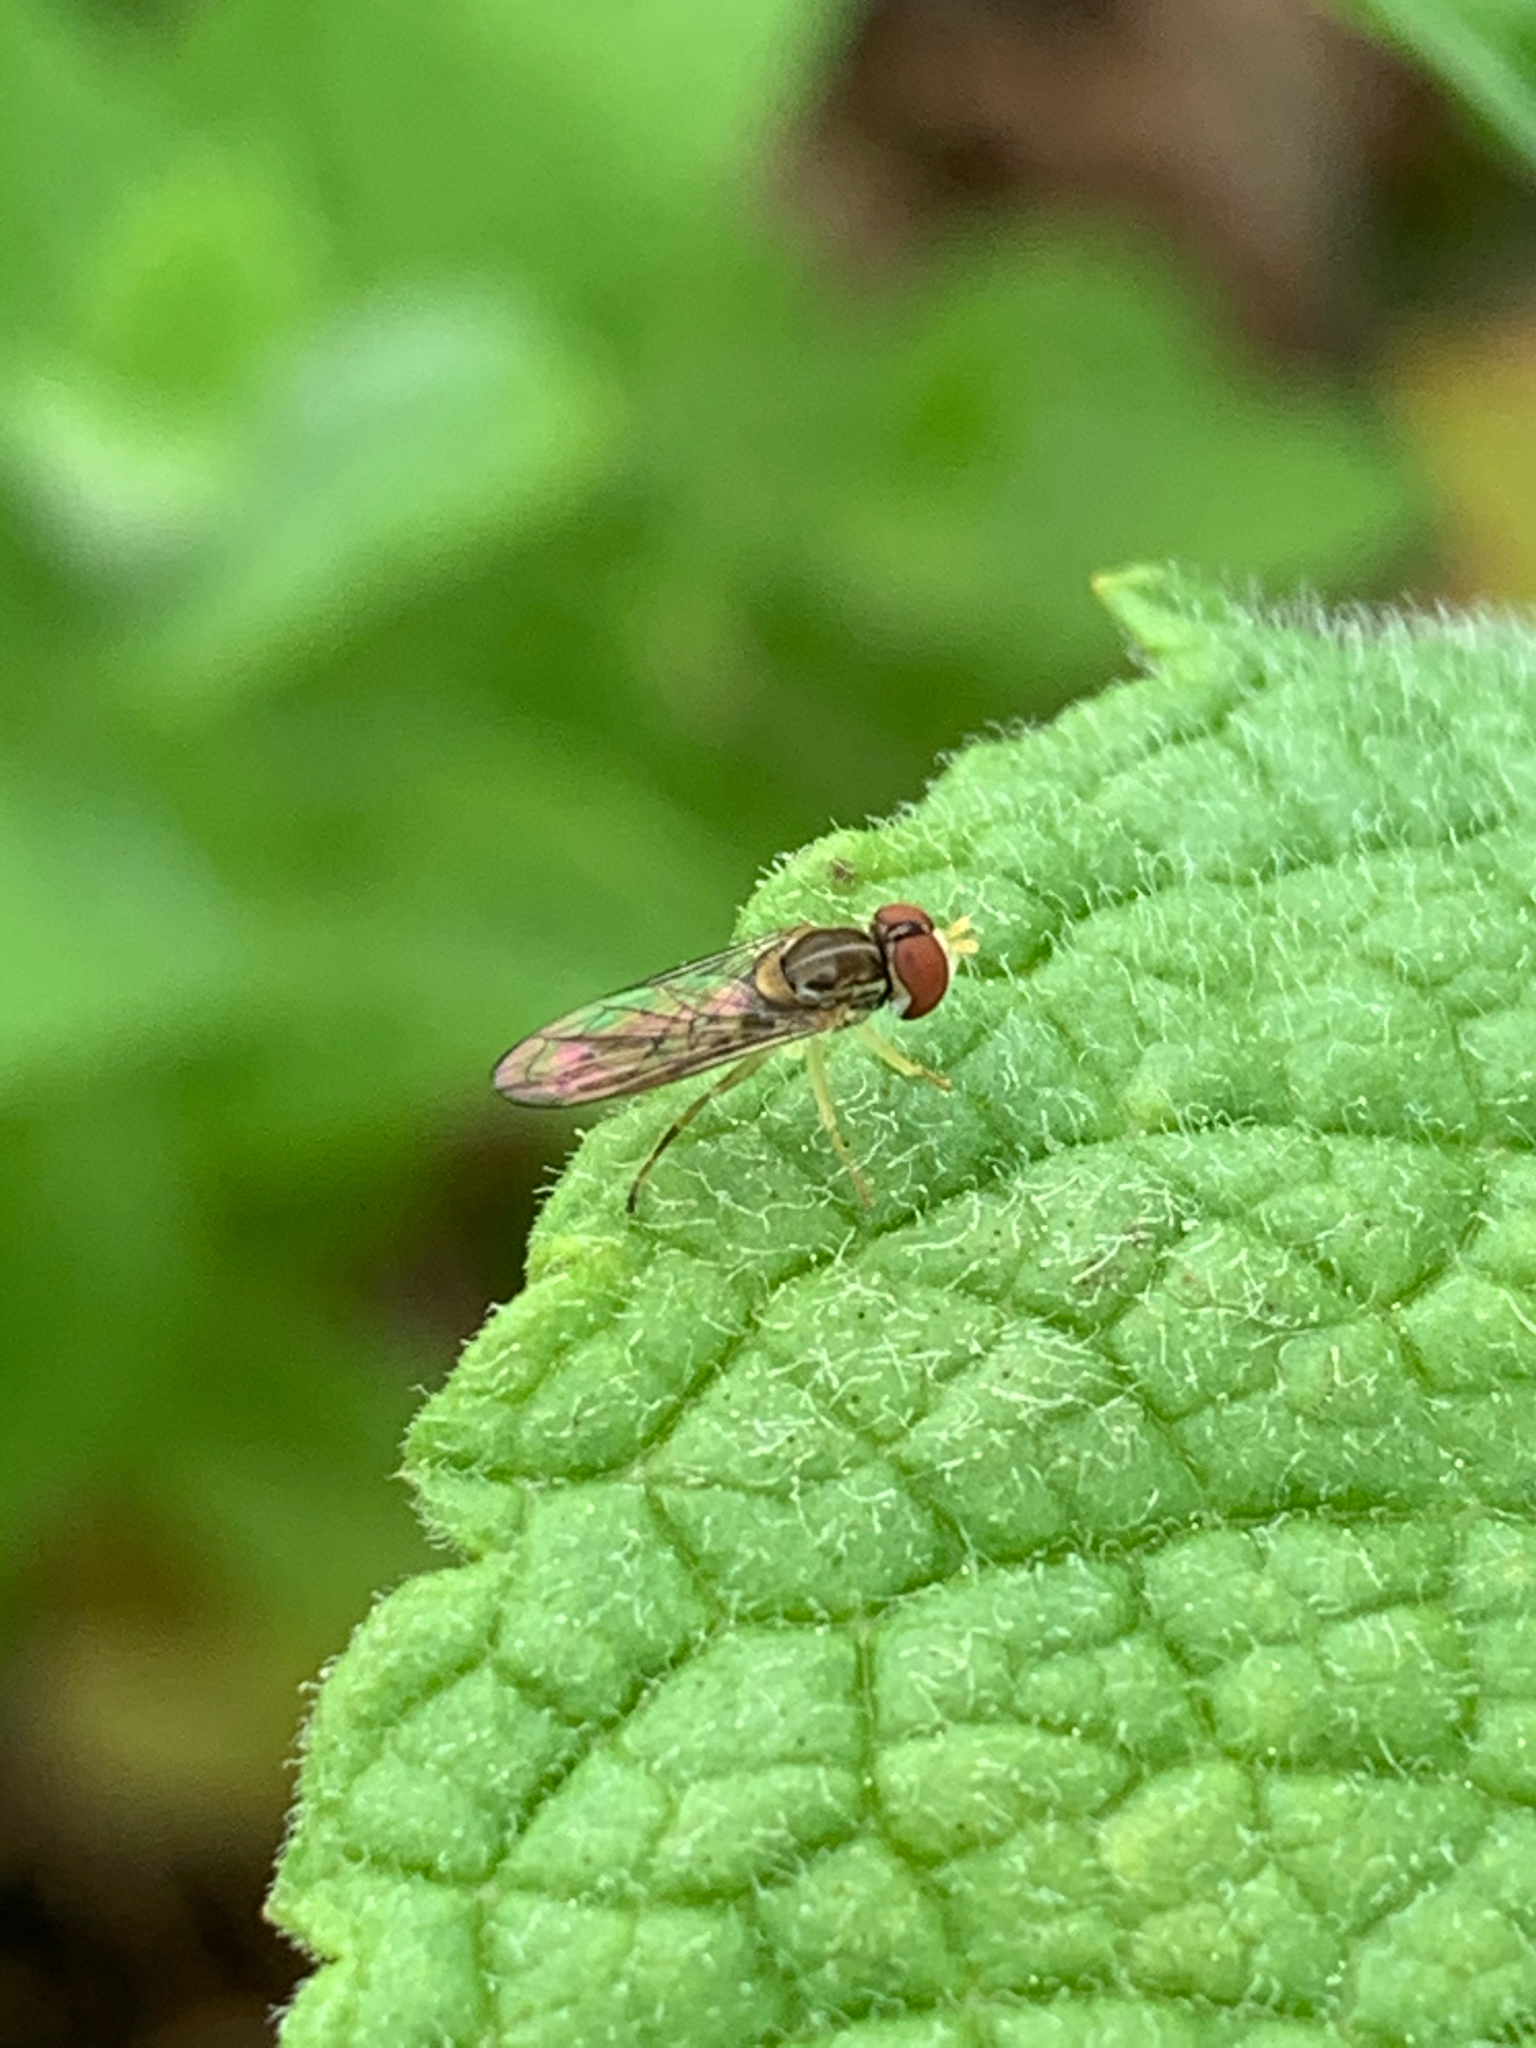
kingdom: Animalia
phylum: Arthropoda
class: Insecta
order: Diptera
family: Syrphidae
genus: Toxomerus
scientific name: Toxomerus marginatus
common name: Syrphid fly
